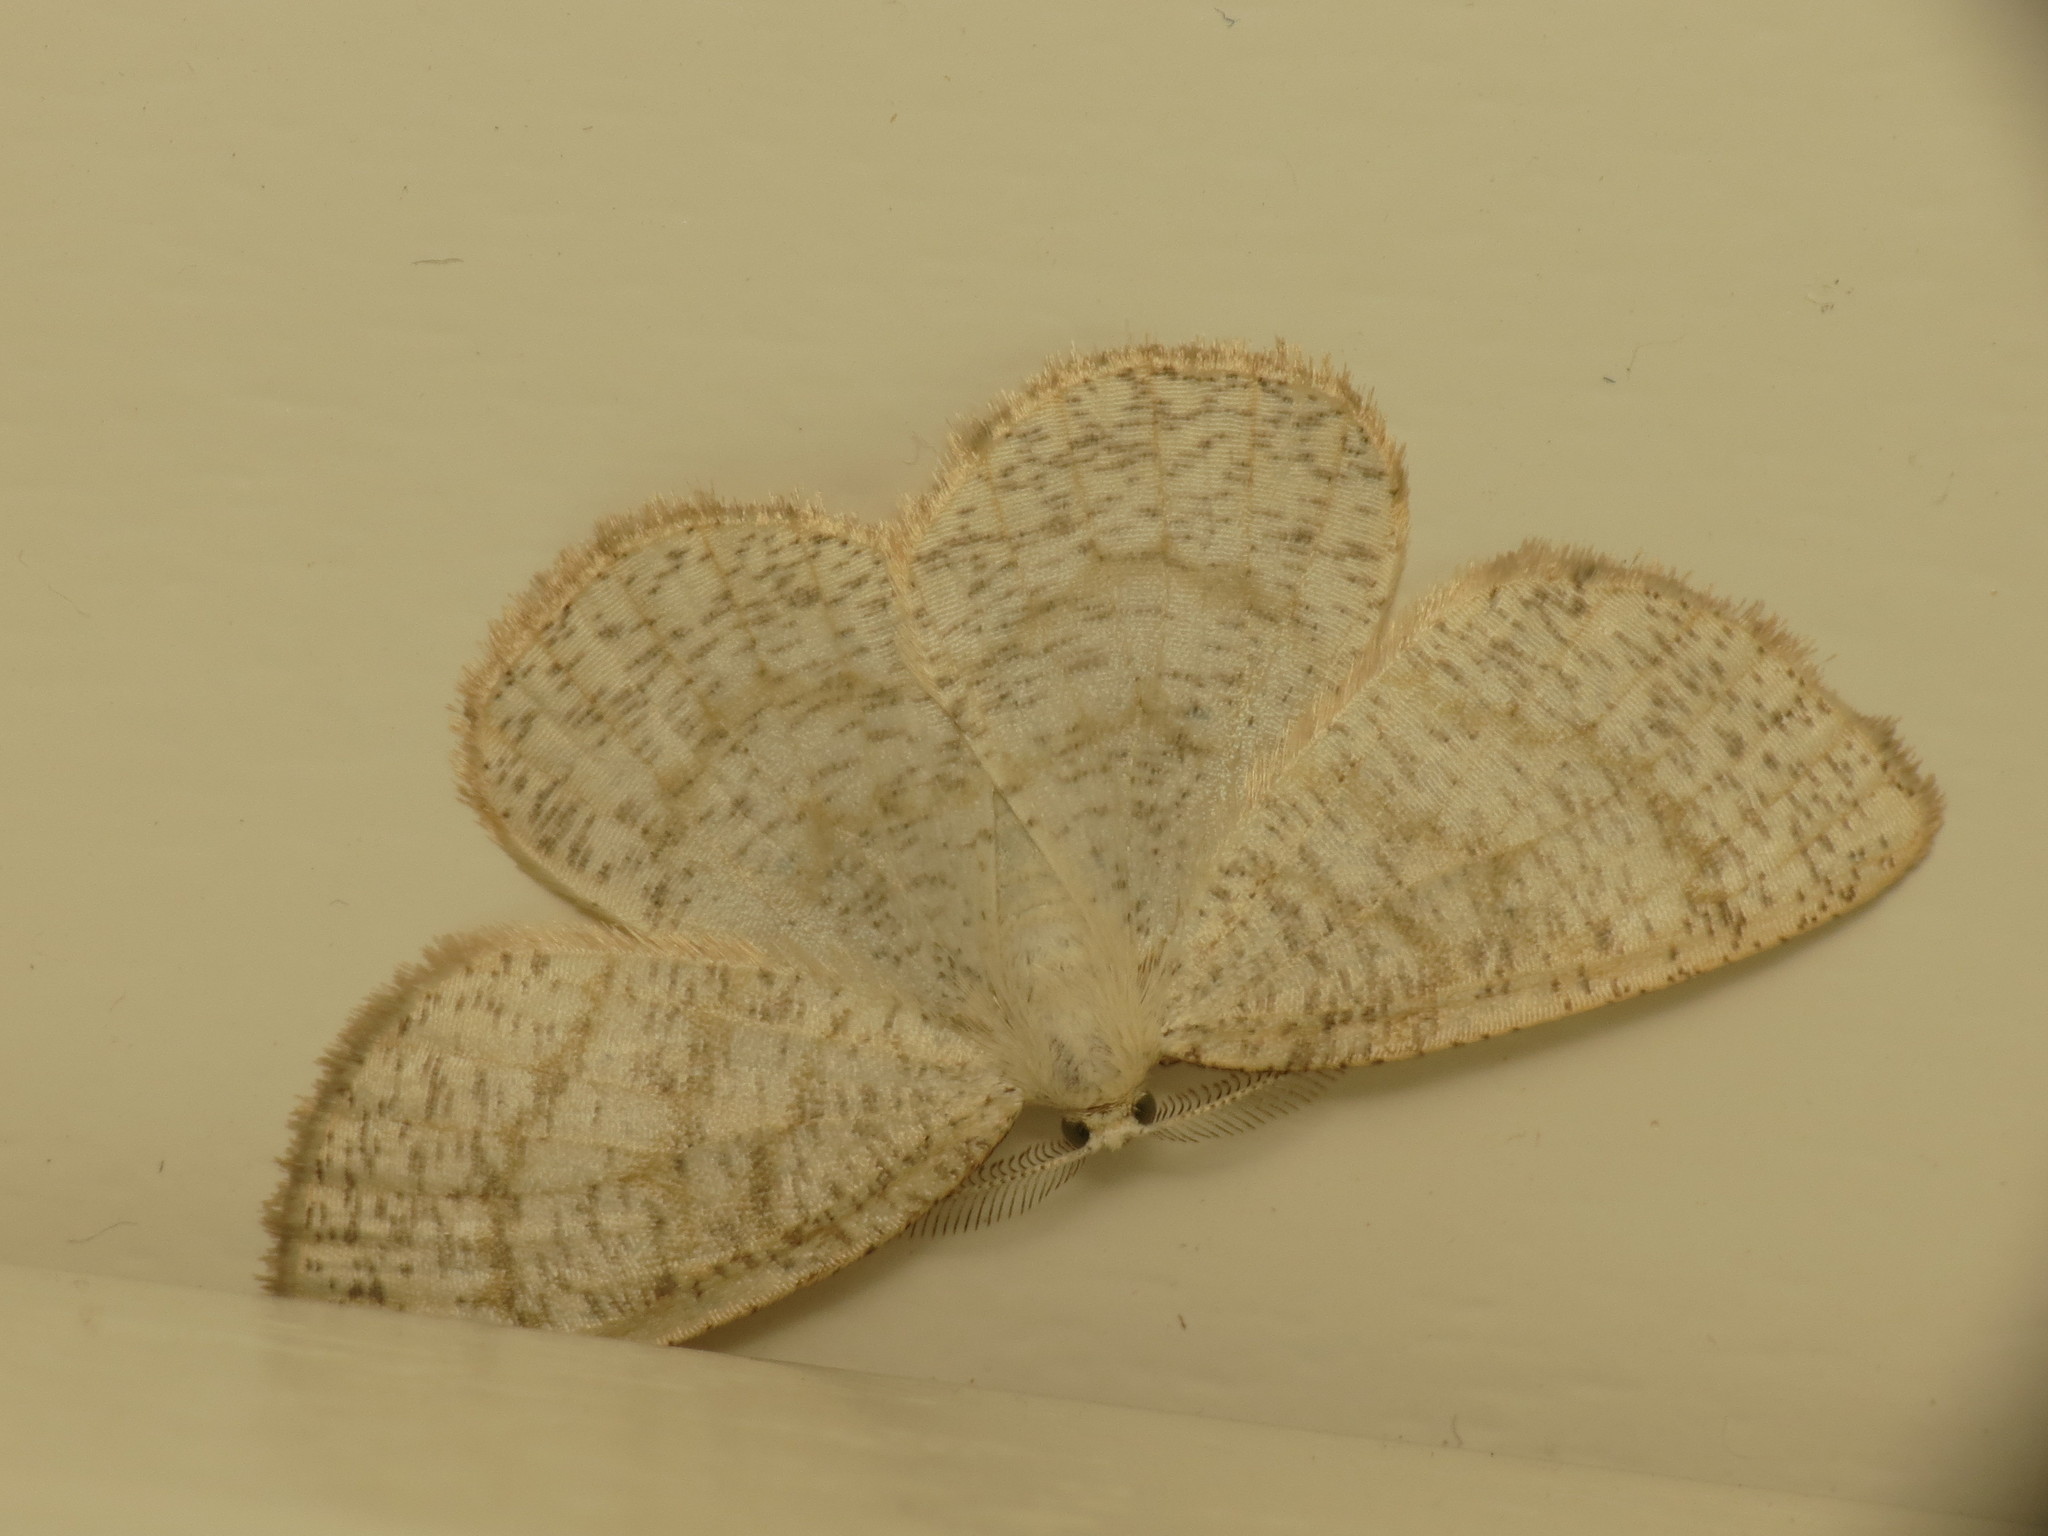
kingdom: Animalia
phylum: Arthropoda
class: Insecta
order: Lepidoptera
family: Geometridae
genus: Cabera
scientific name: Cabera exanthemata
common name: Common wave
